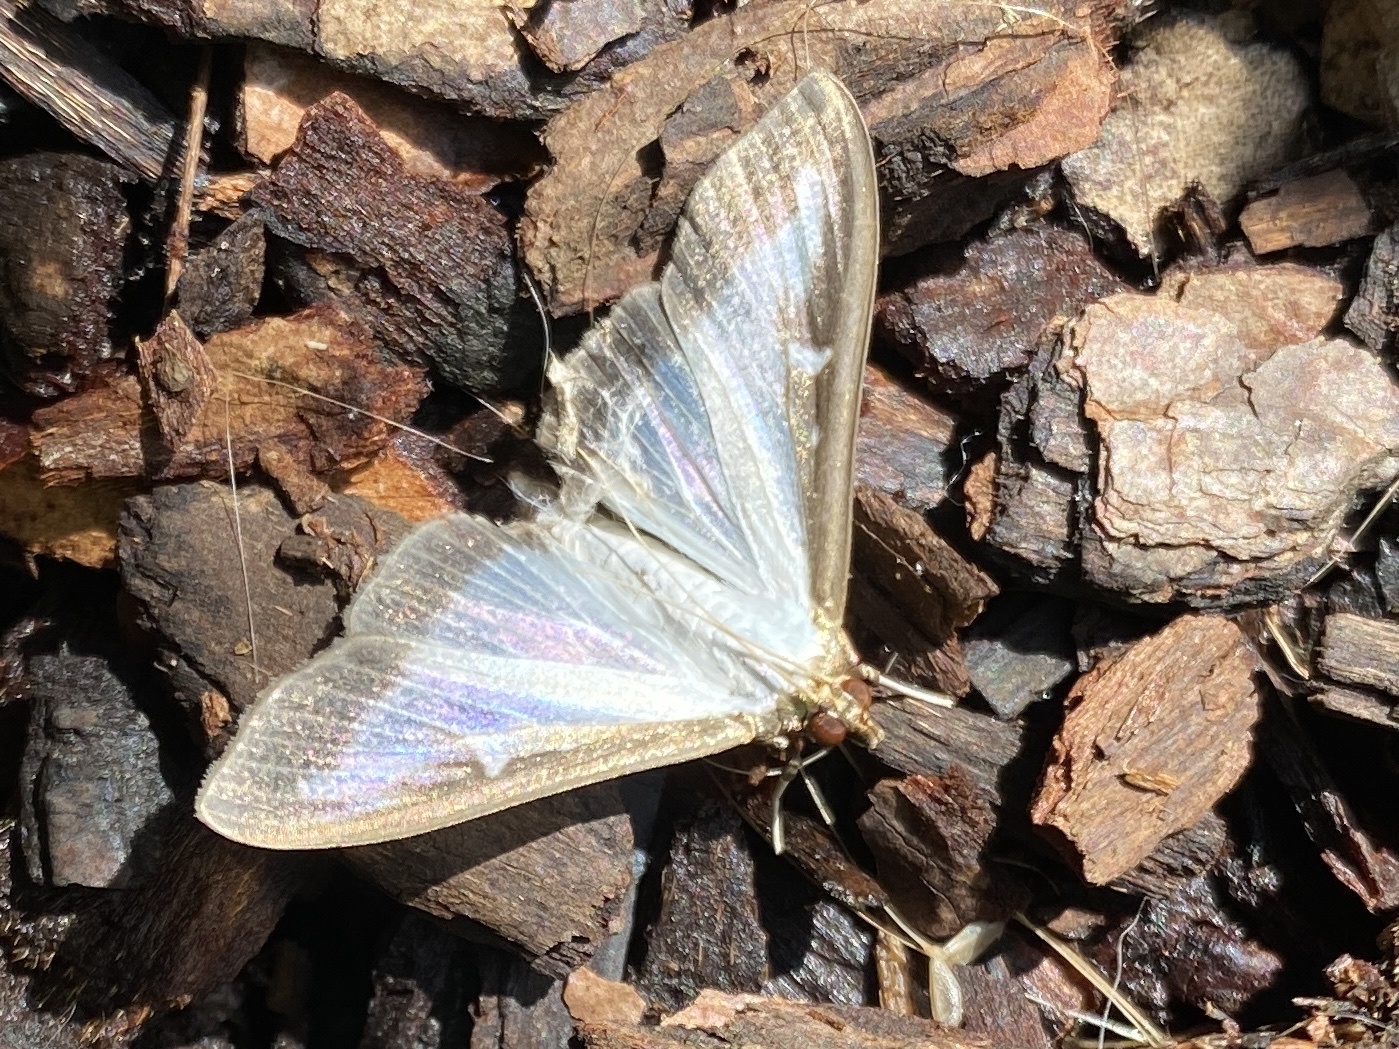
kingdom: Animalia
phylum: Arthropoda
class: Insecta
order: Lepidoptera
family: Crambidae
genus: Cydalima
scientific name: Cydalima perspectalis
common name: Box tree moth
